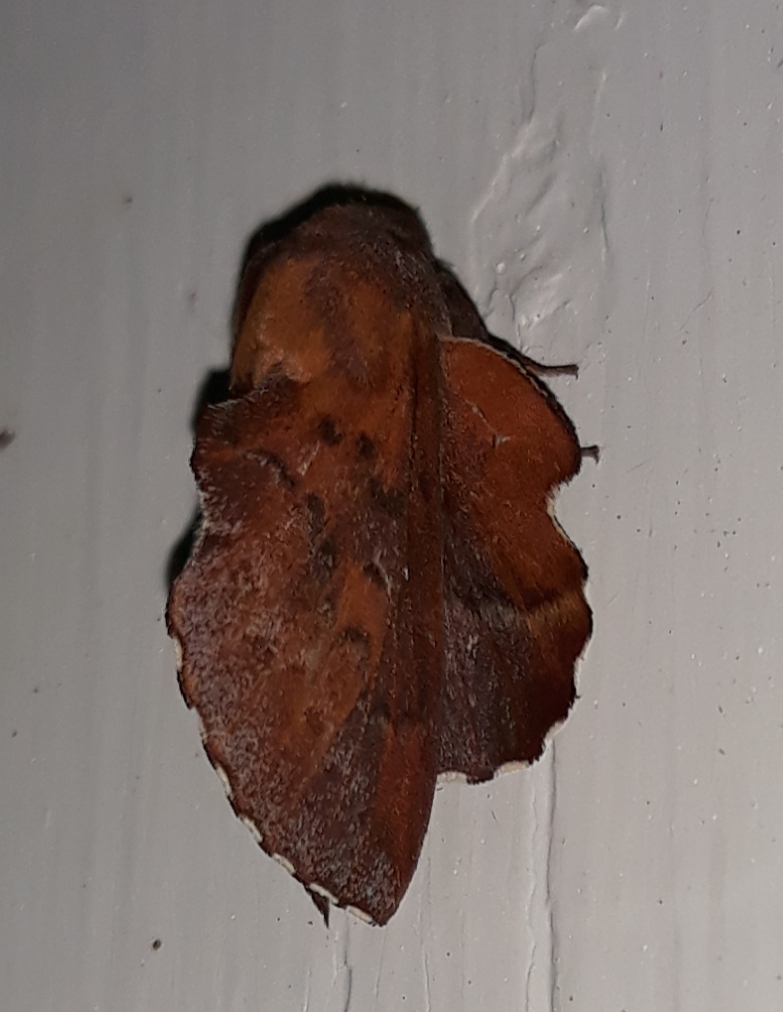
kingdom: Animalia
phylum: Arthropoda
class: Insecta
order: Lepidoptera
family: Lasiocampidae
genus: Phyllodesma
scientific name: Phyllodesma americana
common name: American lappet moth
